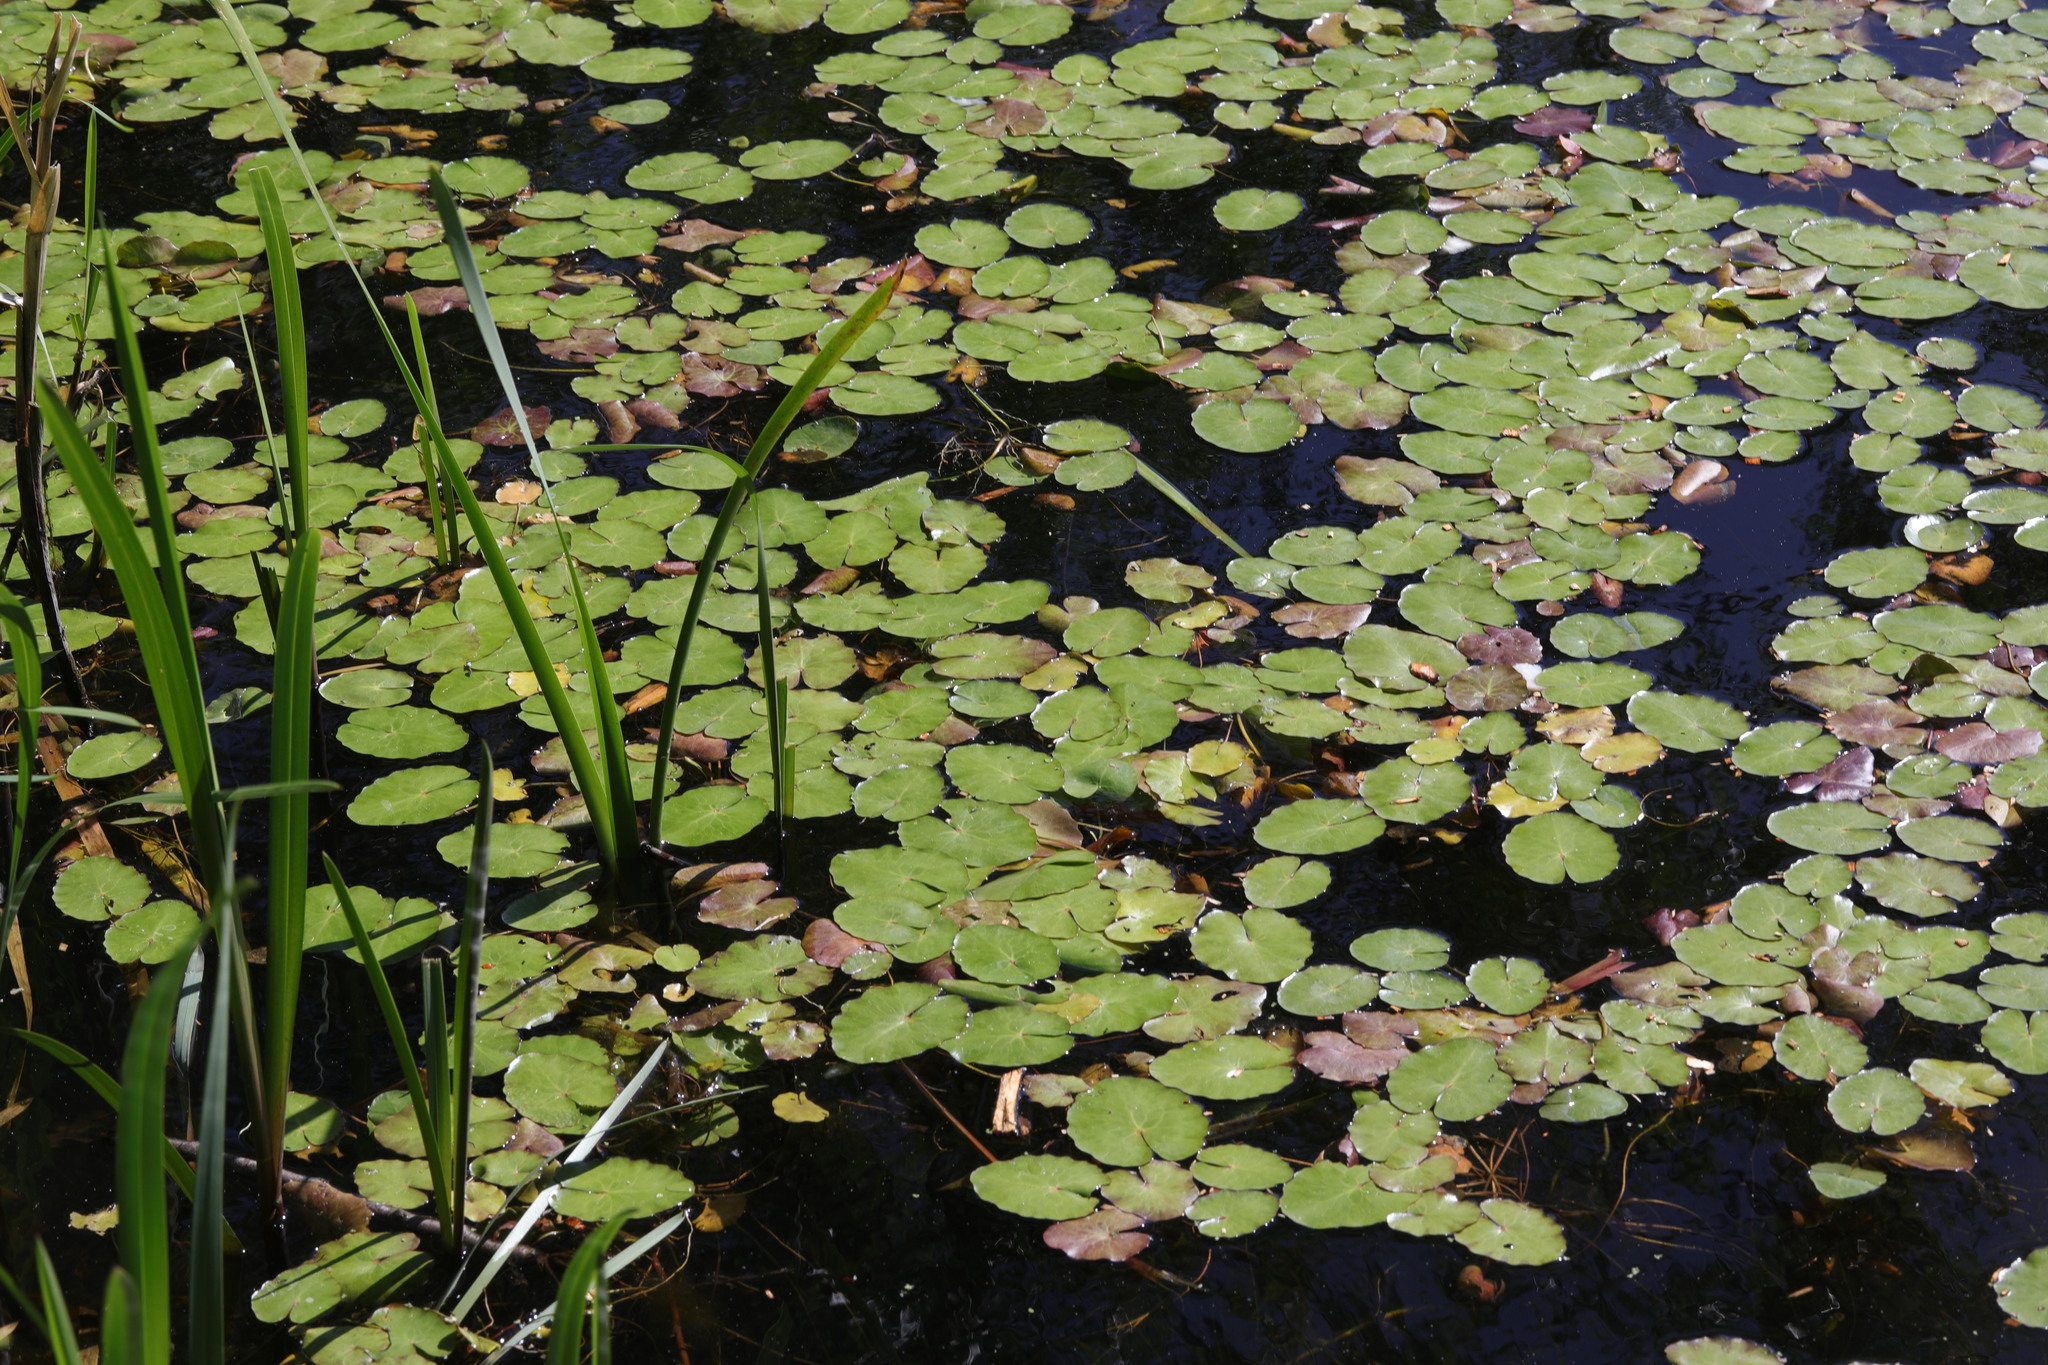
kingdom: Plantae
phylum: Tracheophyta
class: Magnoliopsida
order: Asterales
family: Menyanthaceae
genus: Nymphoides
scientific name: Nymphoides peltata
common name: Fringed water-lily
